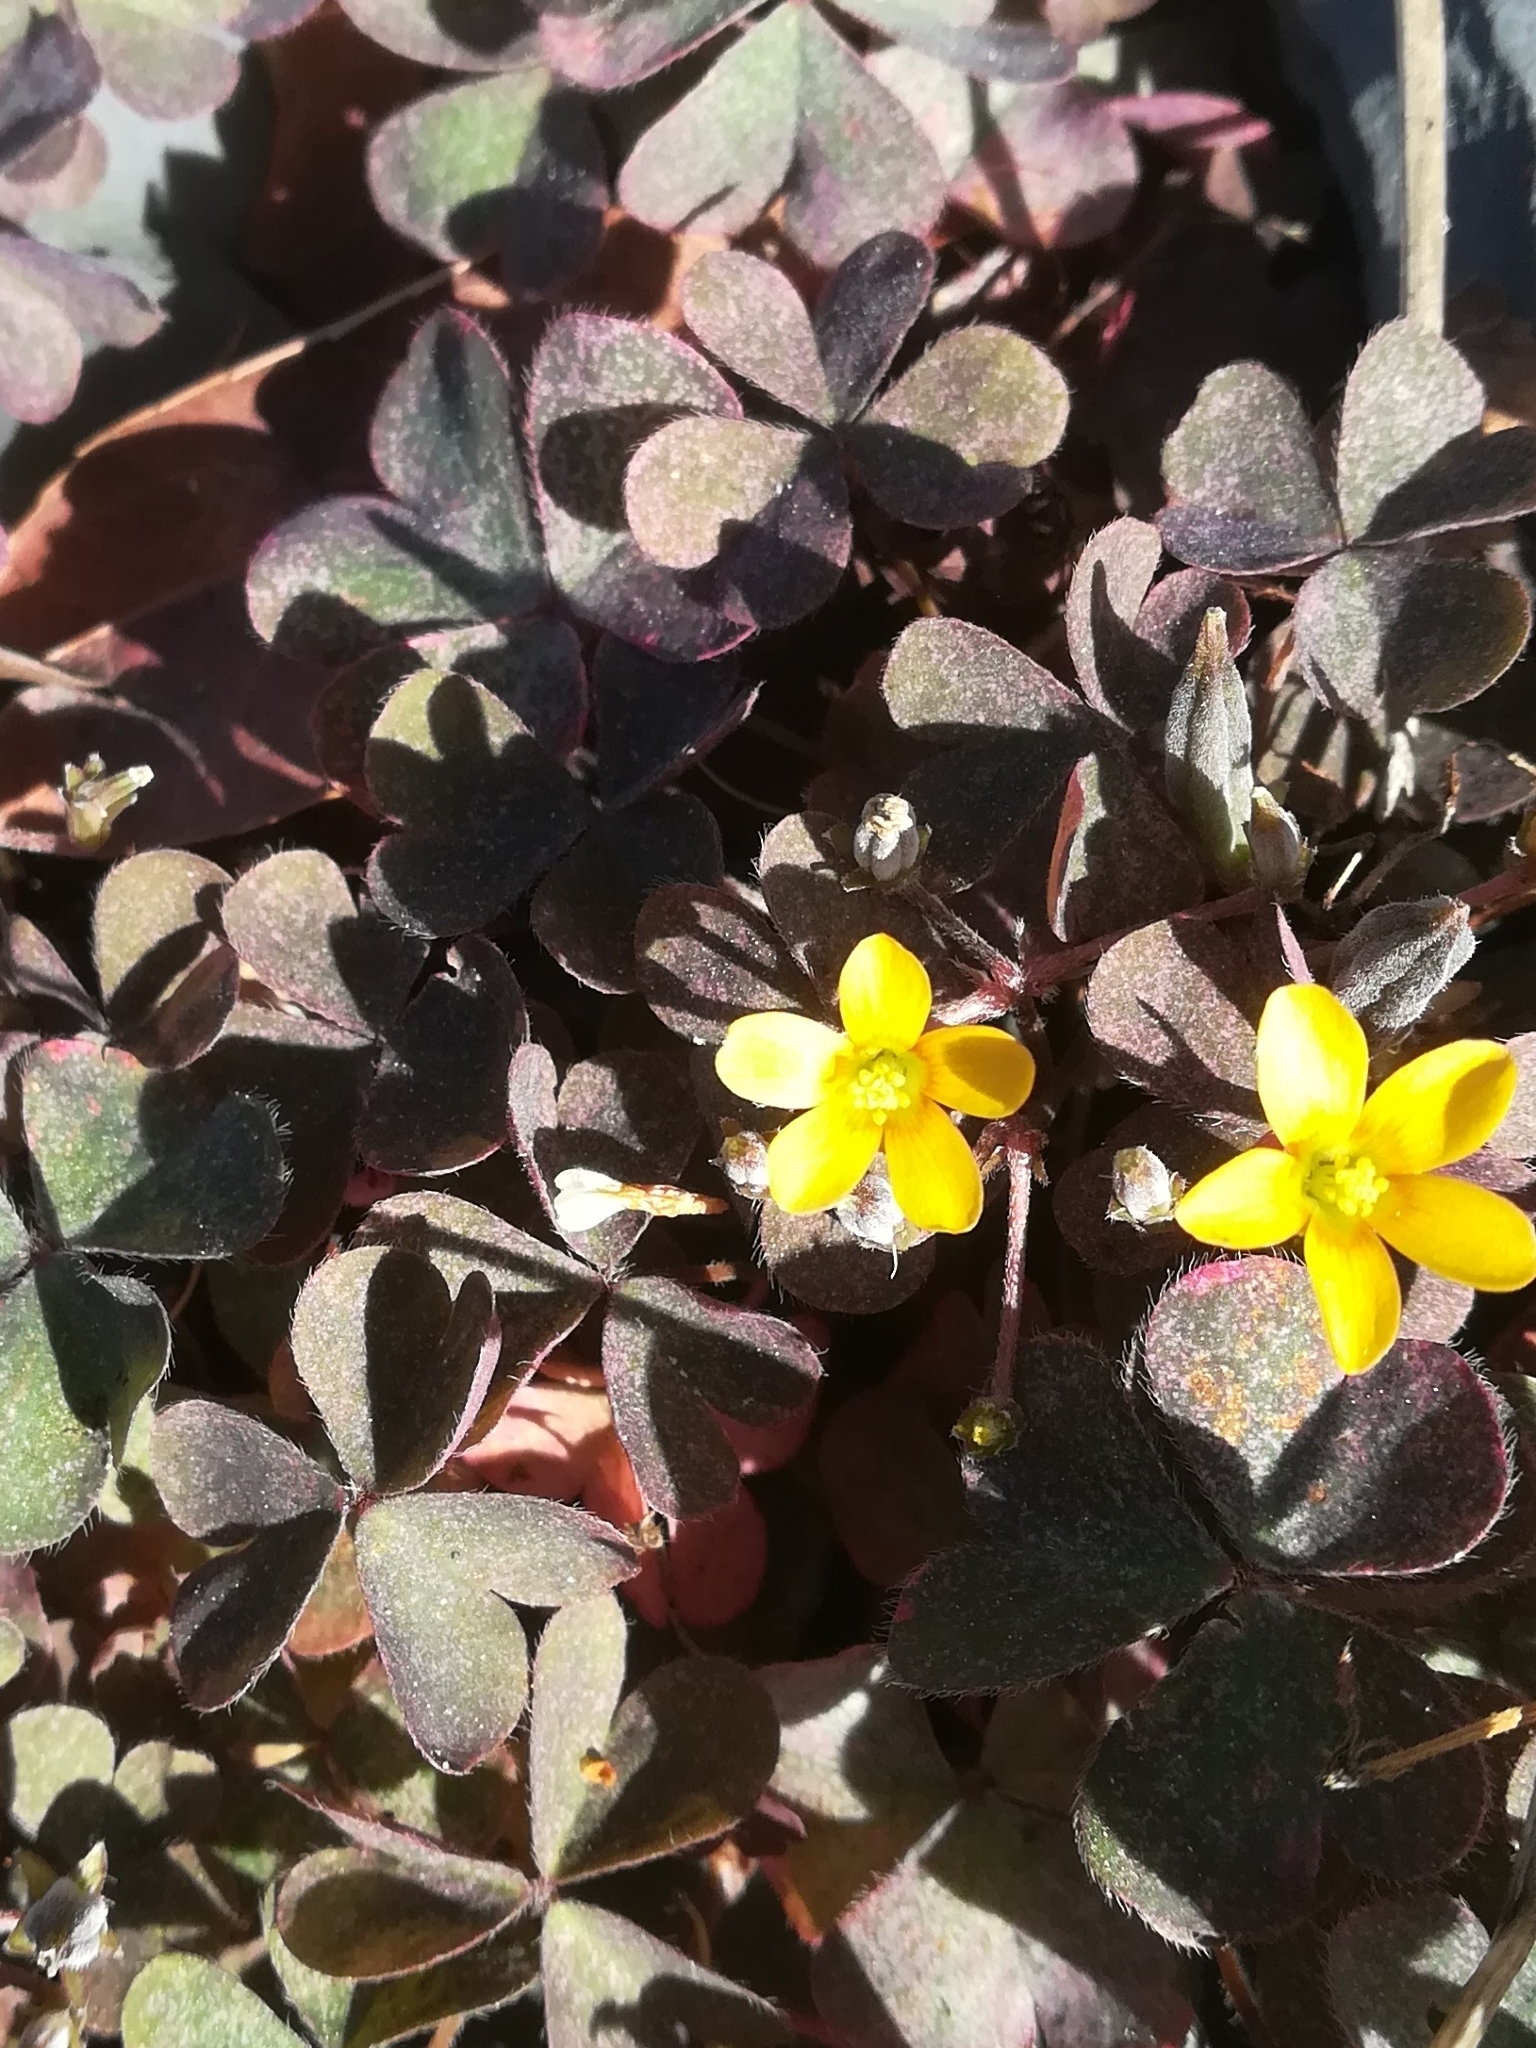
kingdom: Plantae
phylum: Tracheophyta
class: Magnoliopsida
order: Oxalidales
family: Oxalidaceae
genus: Oxalis
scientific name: Oxalis corniculata
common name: Procumbent yellow-sorrel
